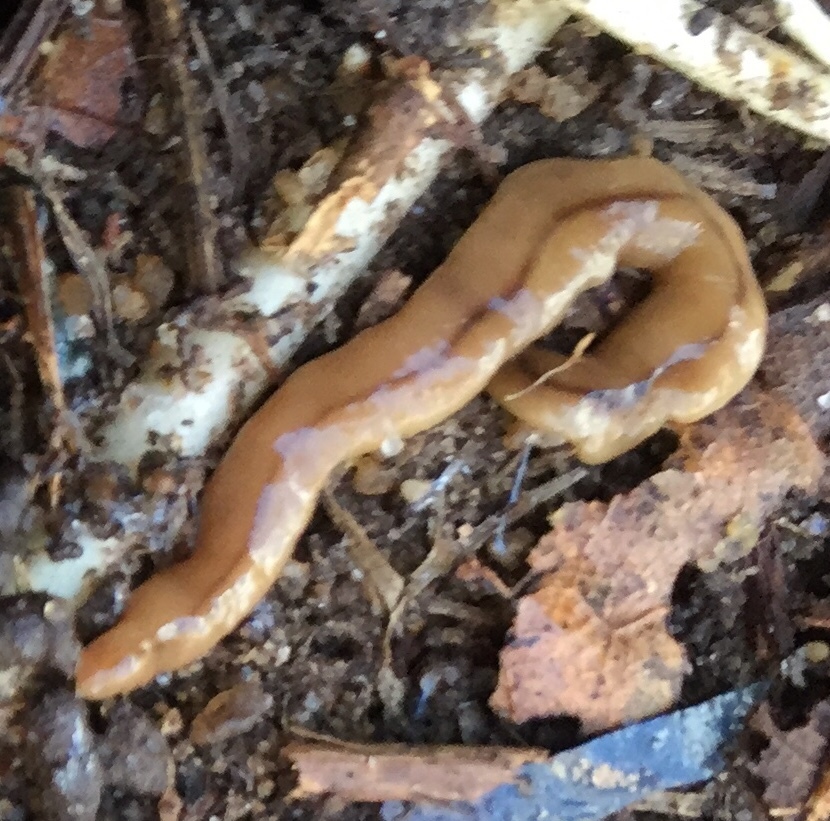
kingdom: Animalia
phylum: Platyhelminthes
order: Tricladida
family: Geoplanidae
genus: Bipalium
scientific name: Bipalium adventitium
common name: Land planarian
